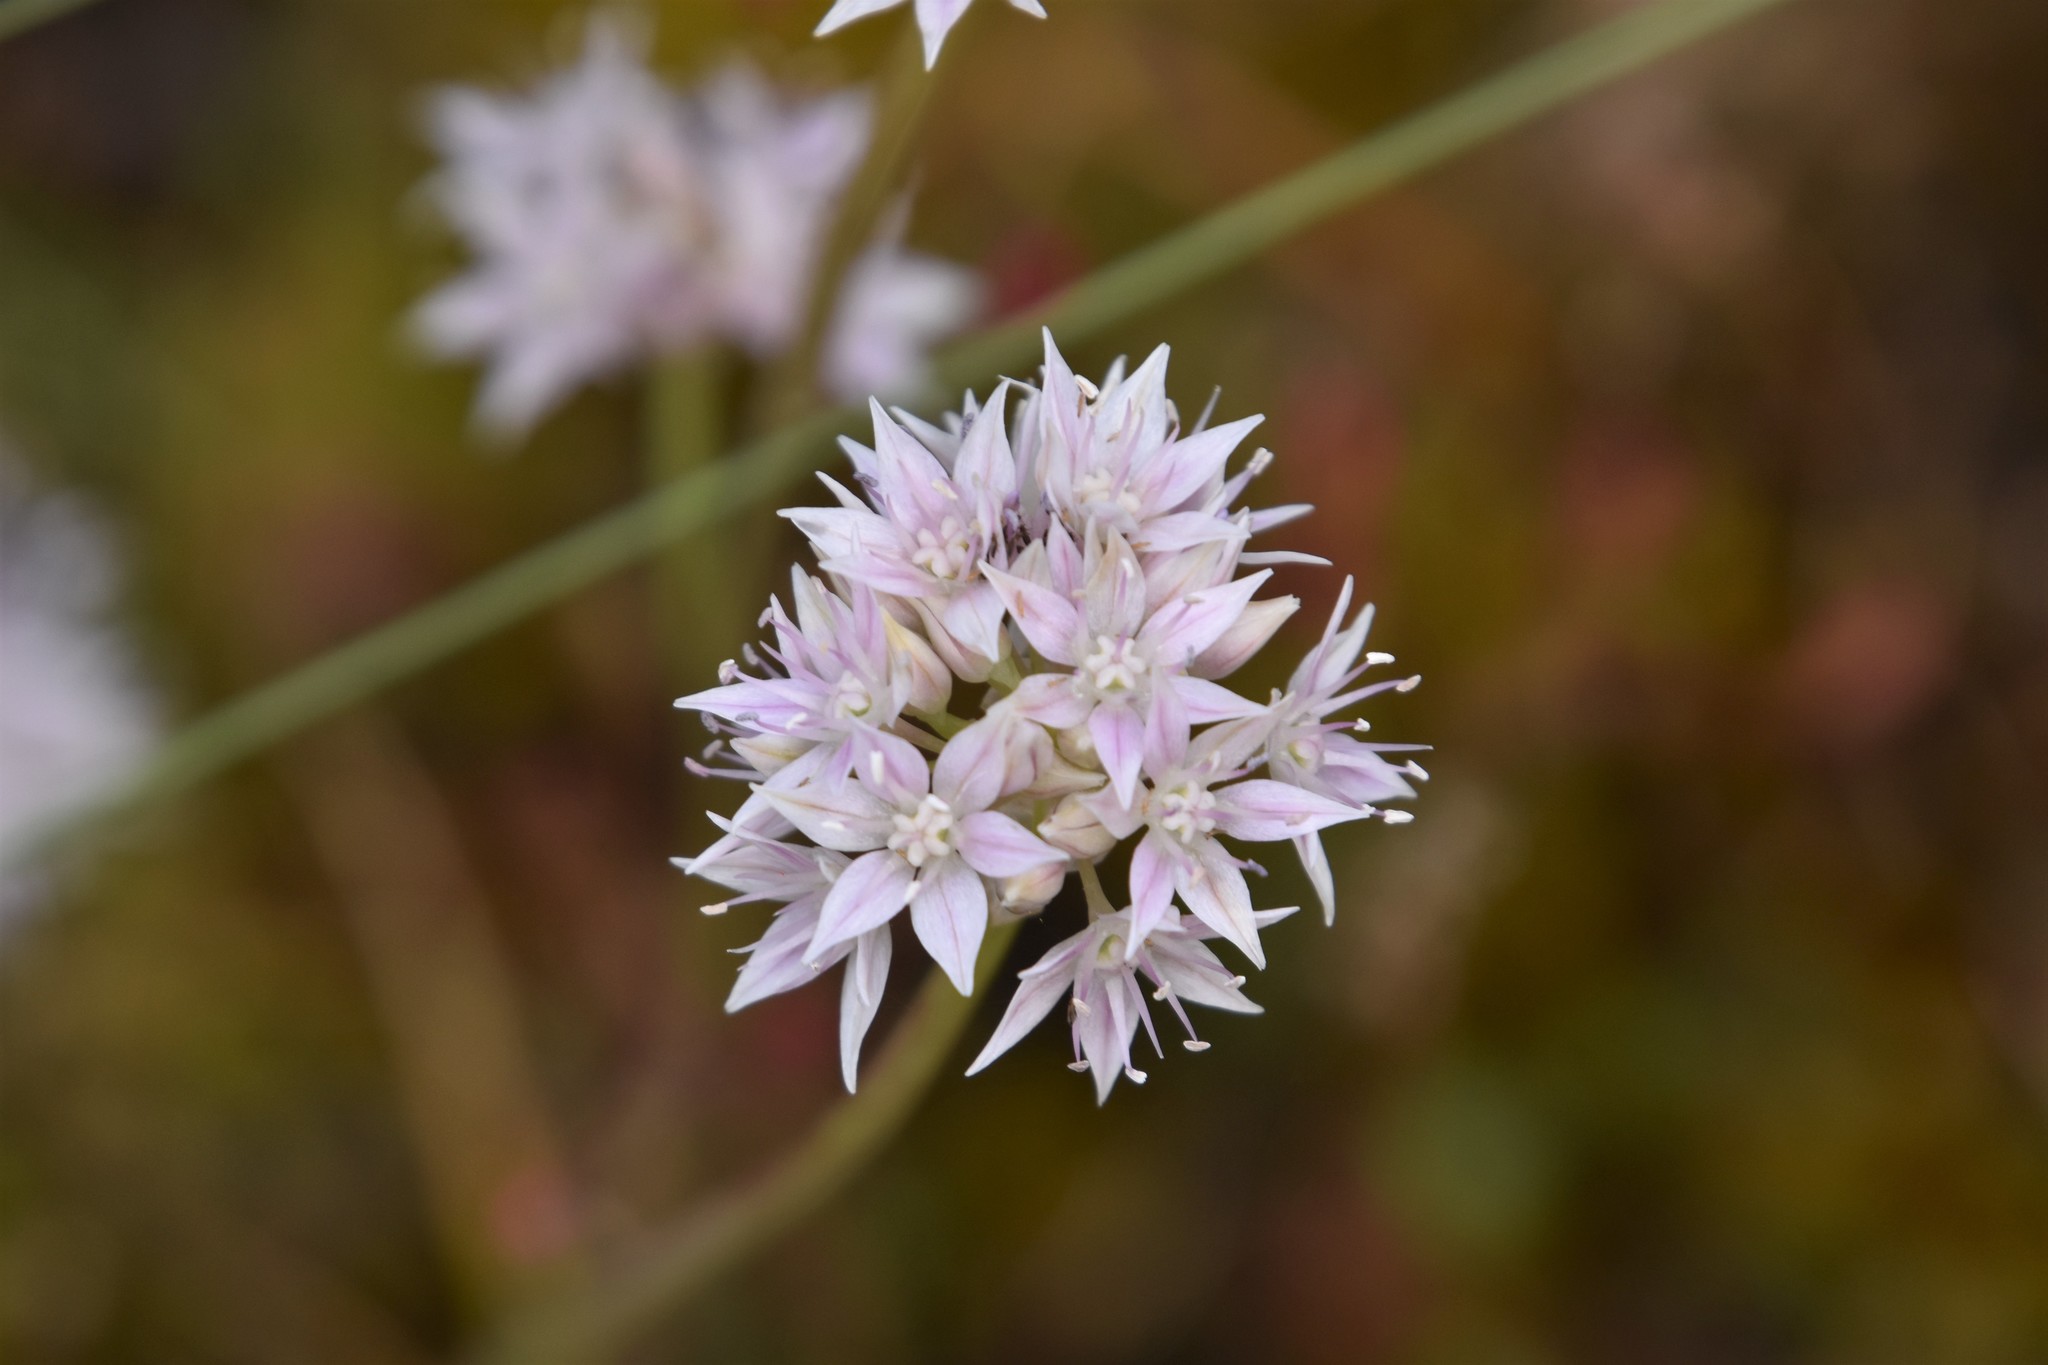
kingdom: Plantae
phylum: Tracheophyta
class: Liliopsida
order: Asparagales
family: Amaryllidaceae
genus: Allium
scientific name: Allium amplectens
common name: Narrow-leaved onion
